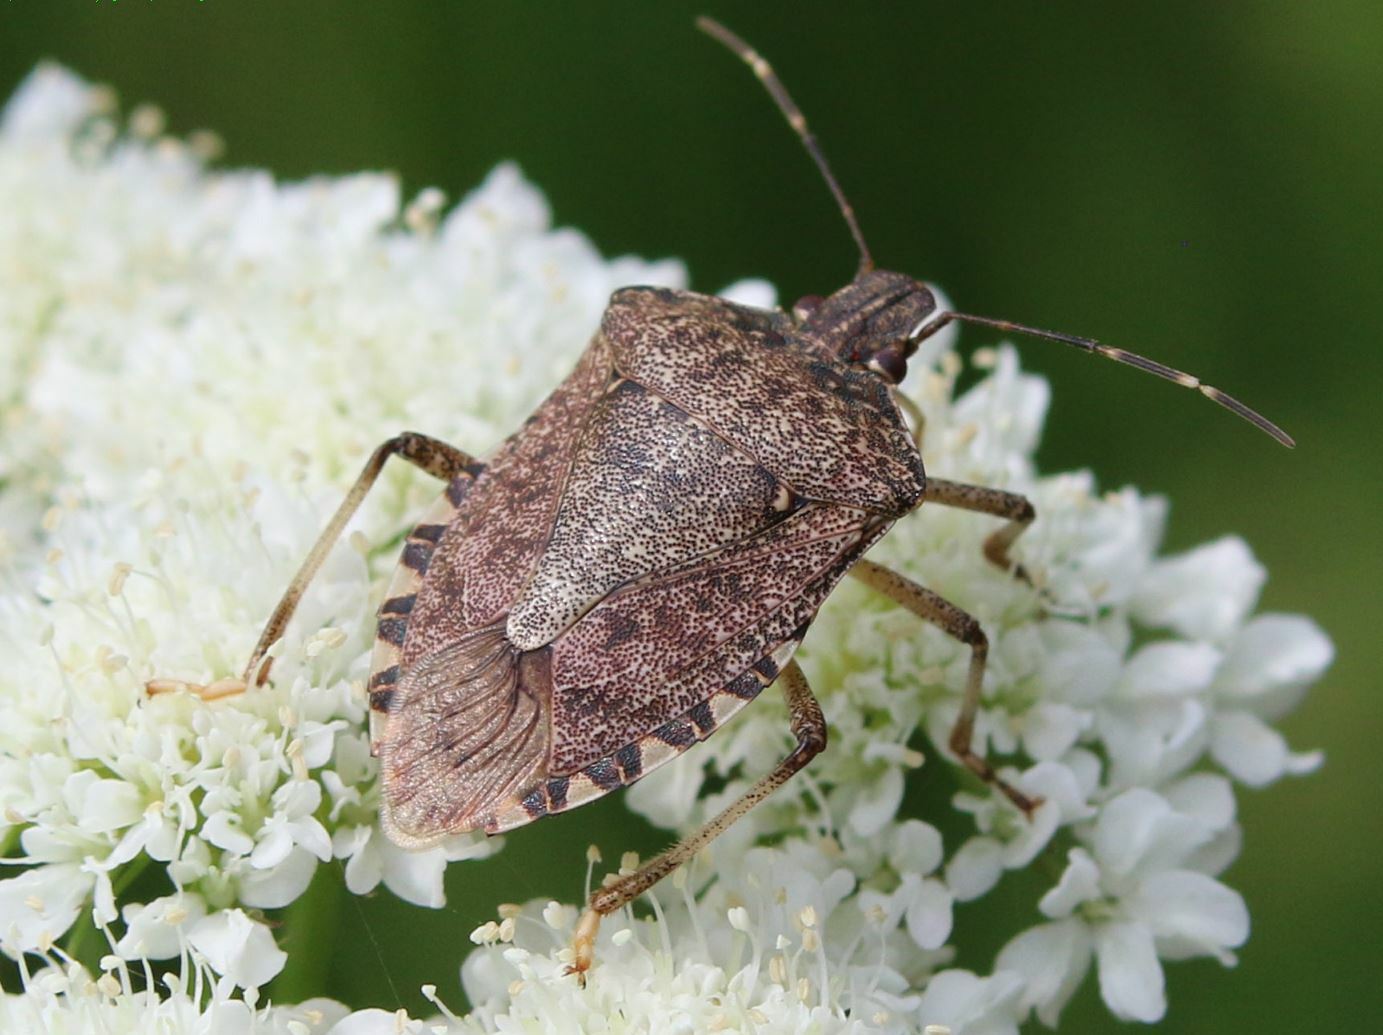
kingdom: Animalia
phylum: Arthropoda
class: Insecta
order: Hemiptera
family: Pentatomidae
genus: Halyomorpha
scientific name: Halyomorpha halys
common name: Brown marmorated stink bug
